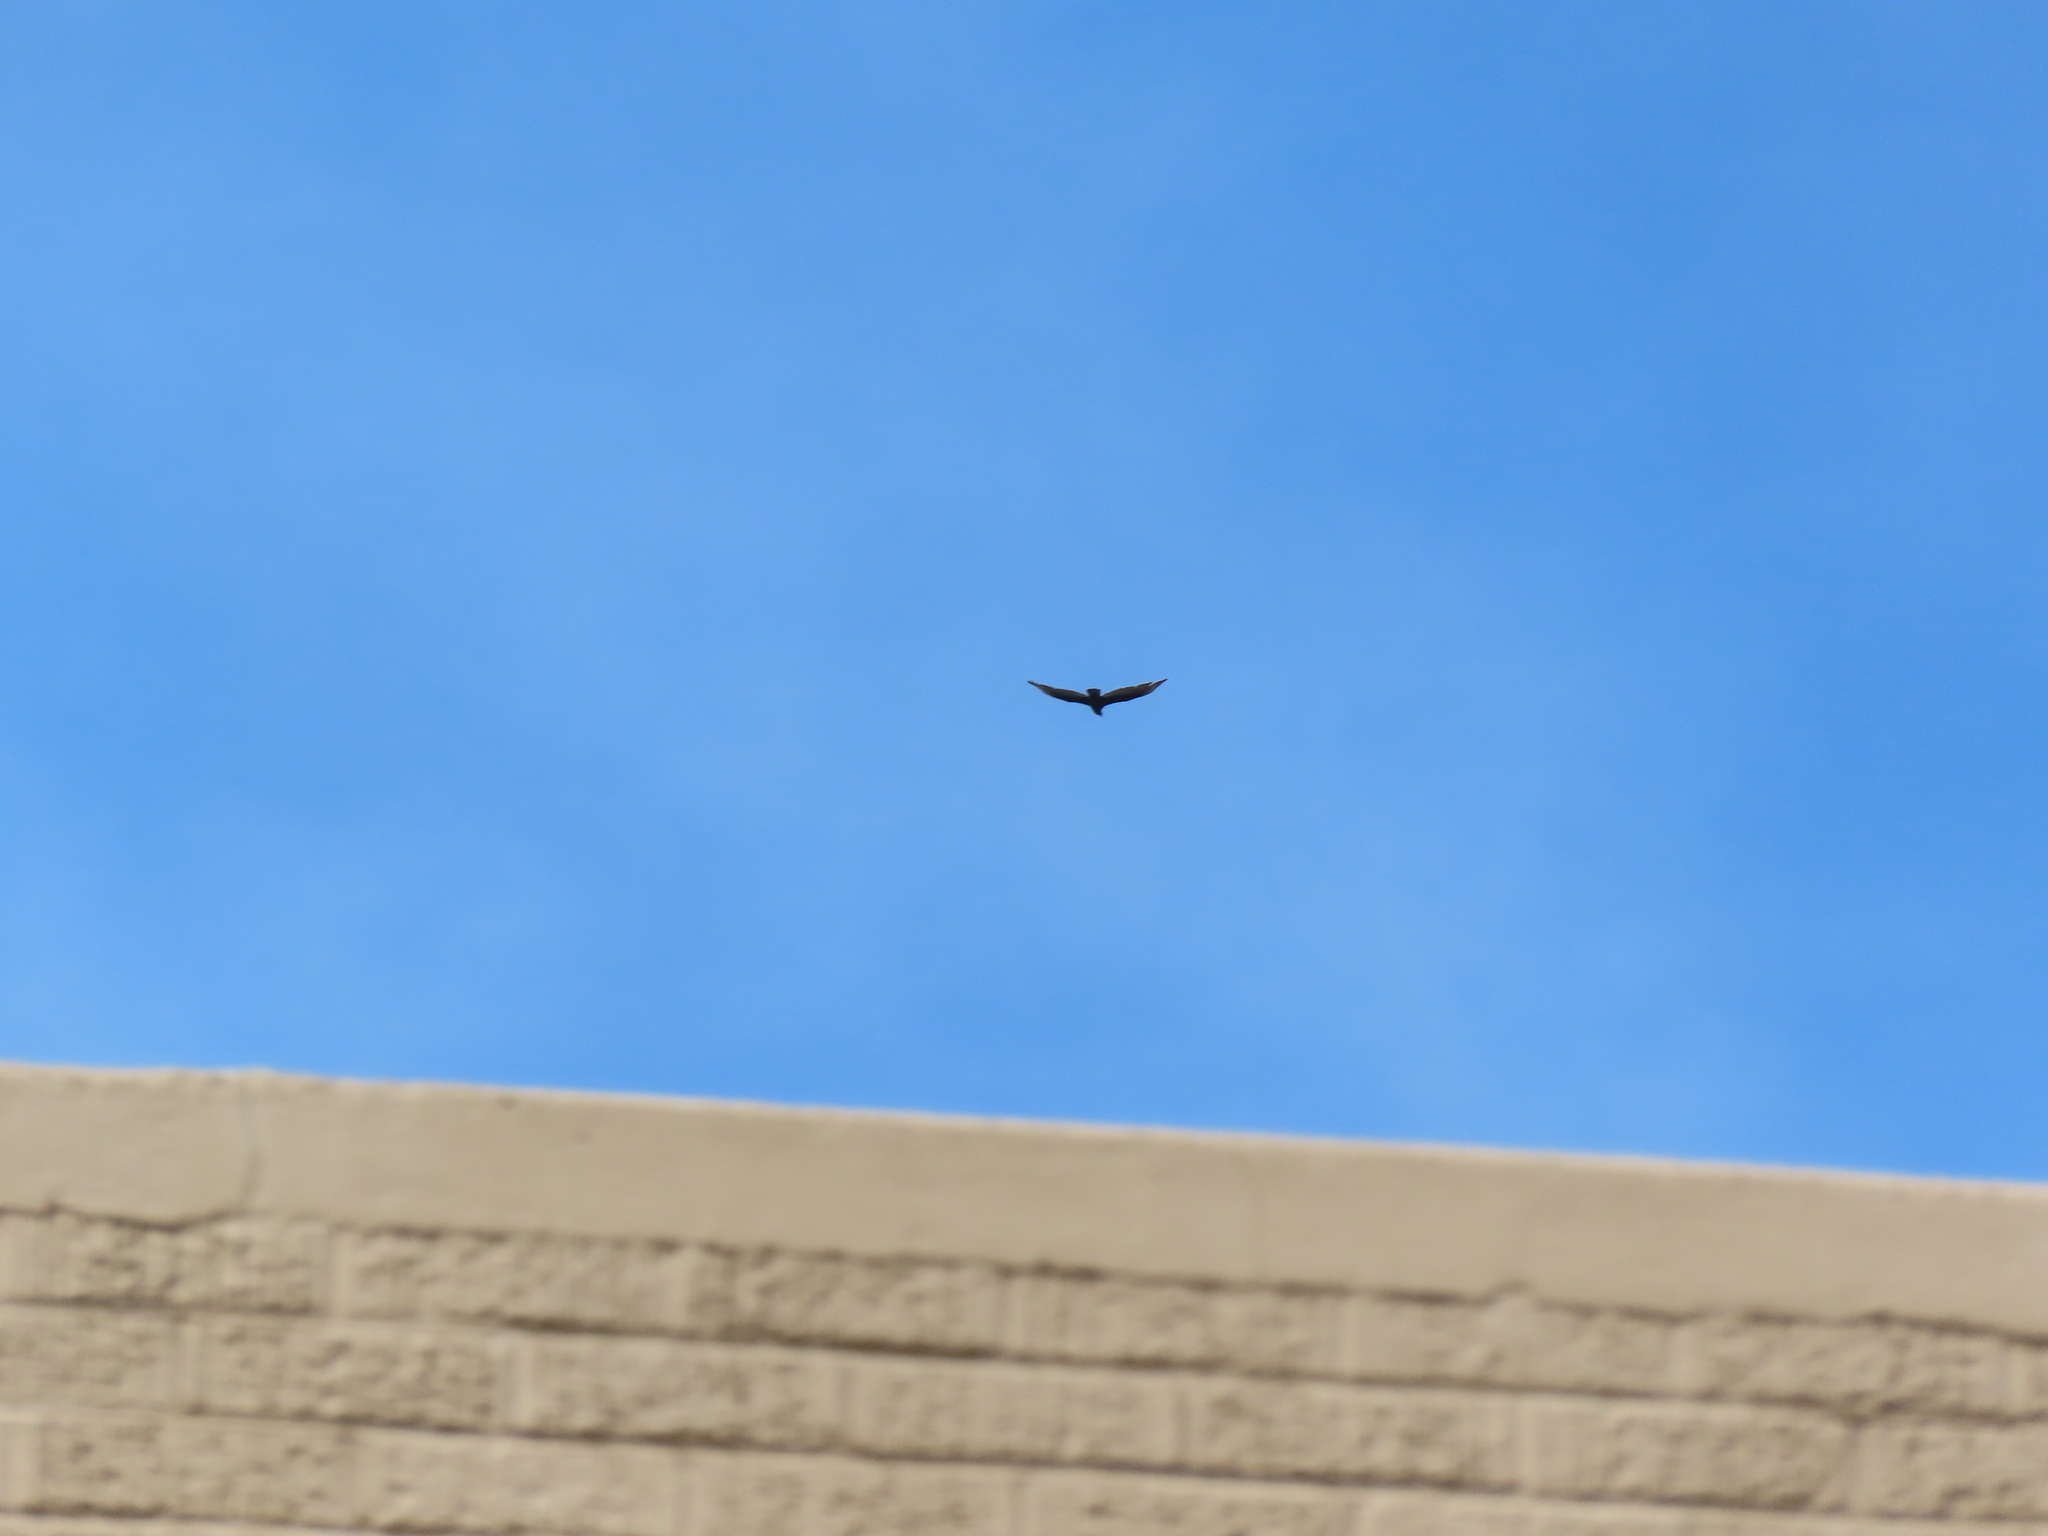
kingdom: Animalia
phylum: Chordata
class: Aves
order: Accipitriformes
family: Cathartidae
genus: Cathartes
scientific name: Cathartes aura
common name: Turkey vulture
